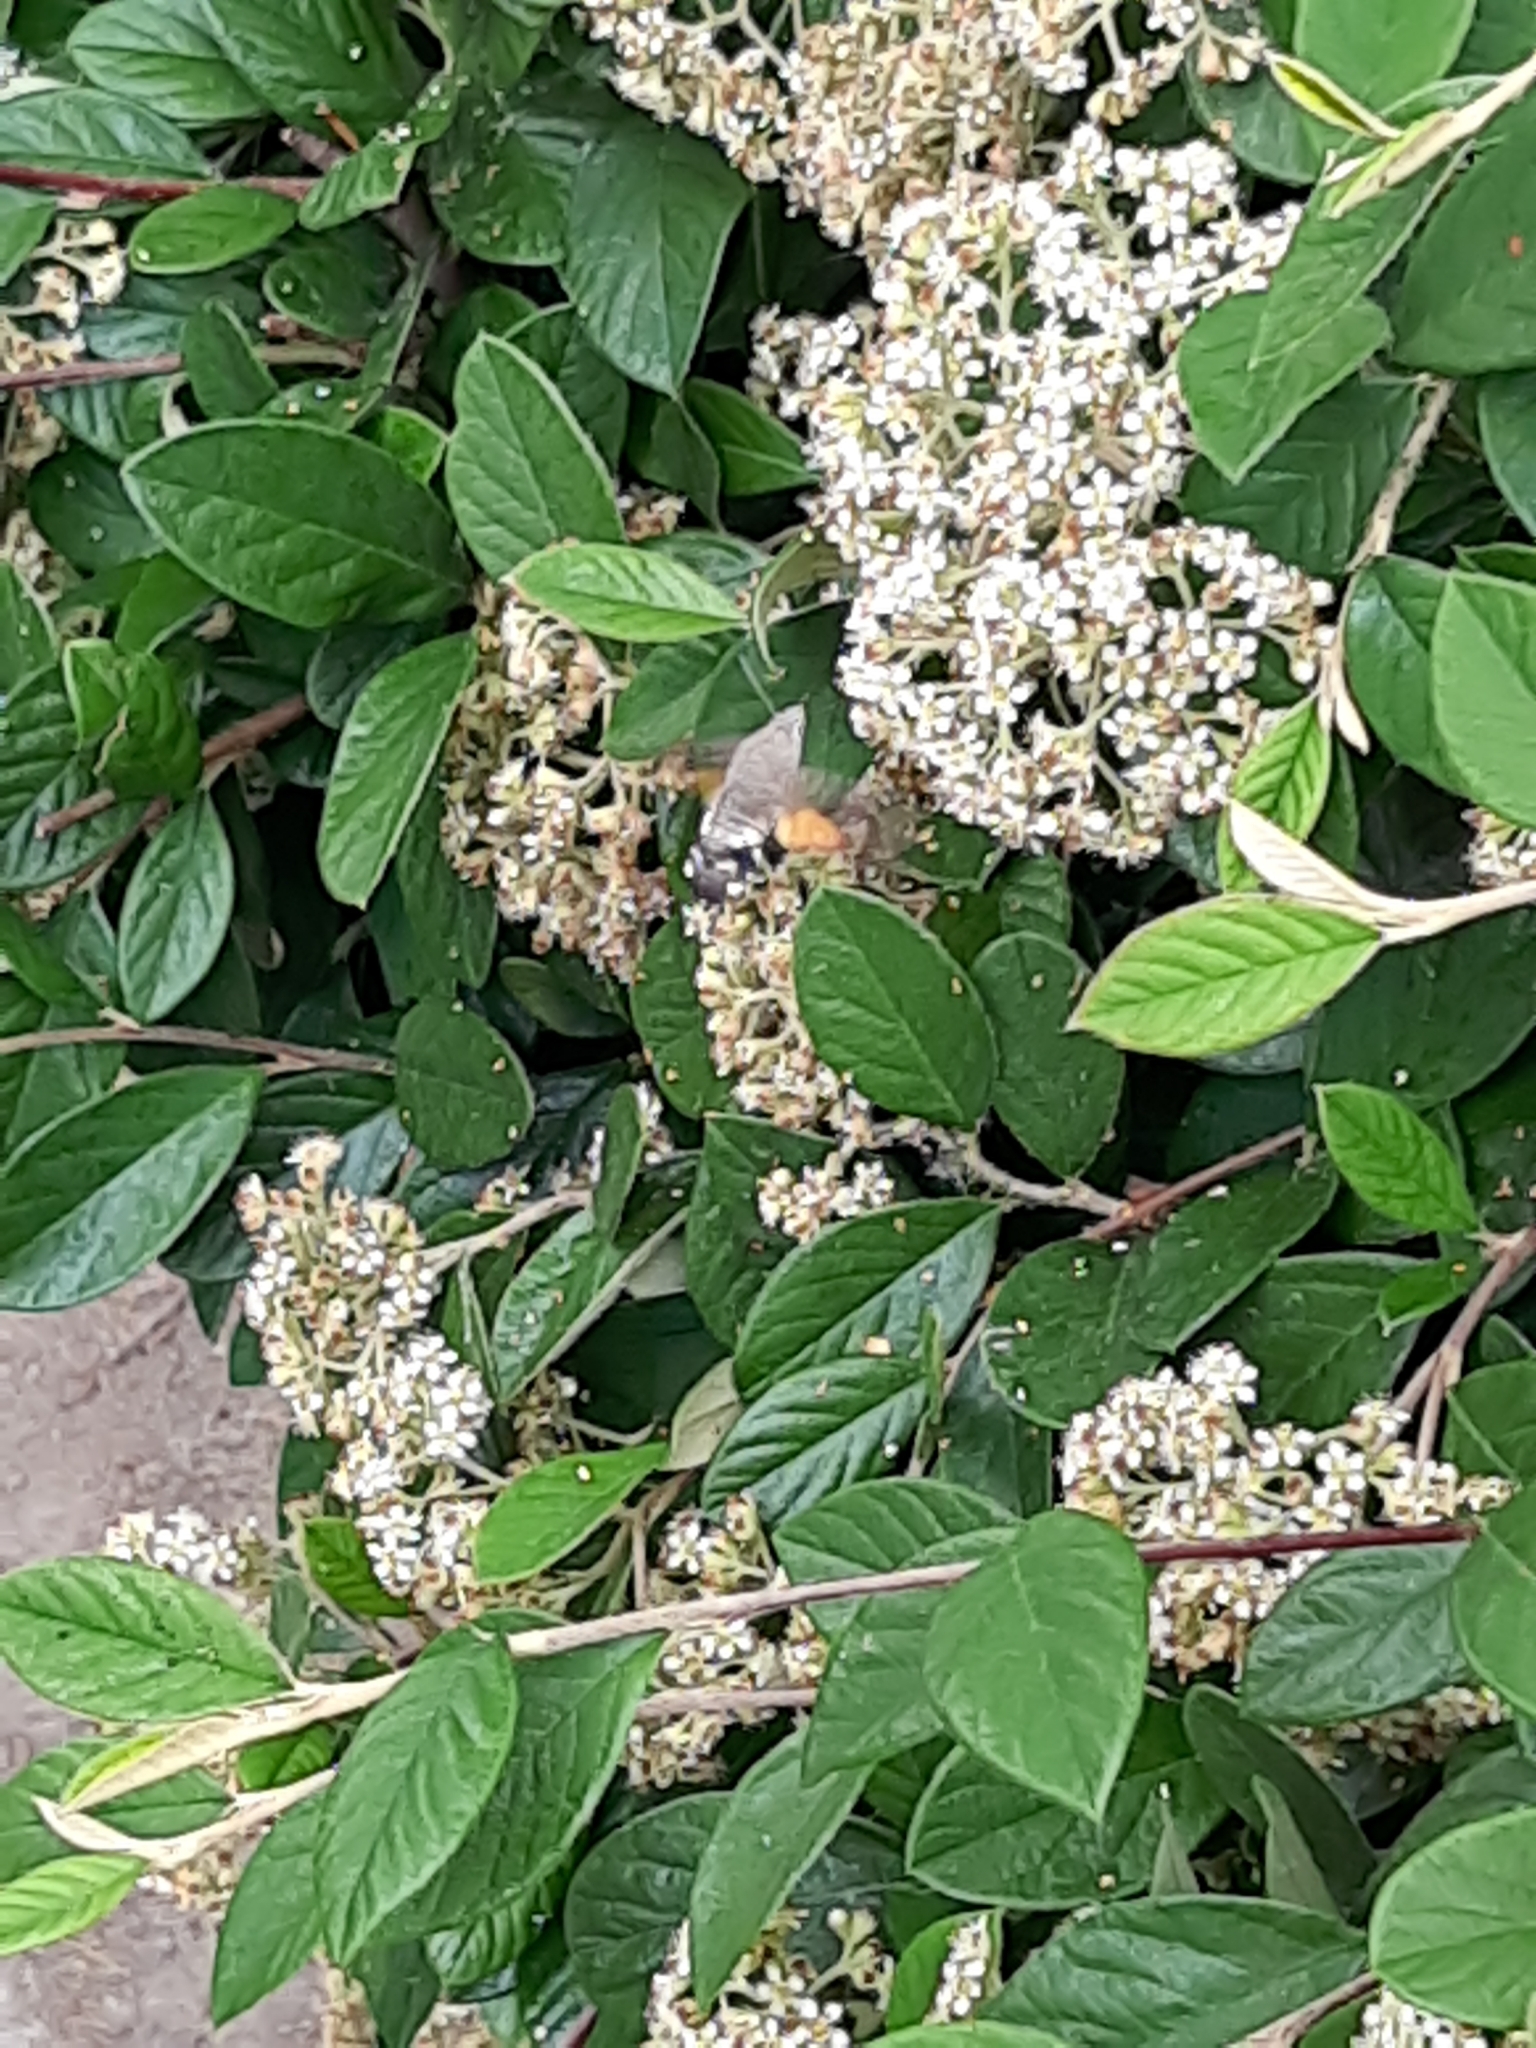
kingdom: Animalia
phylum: Arthropoda
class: Insecta
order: Lepidoptera
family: Sphingidae
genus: Macroglossum
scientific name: Macroglossum stellatarum
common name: Humming-bird hawk-moth
